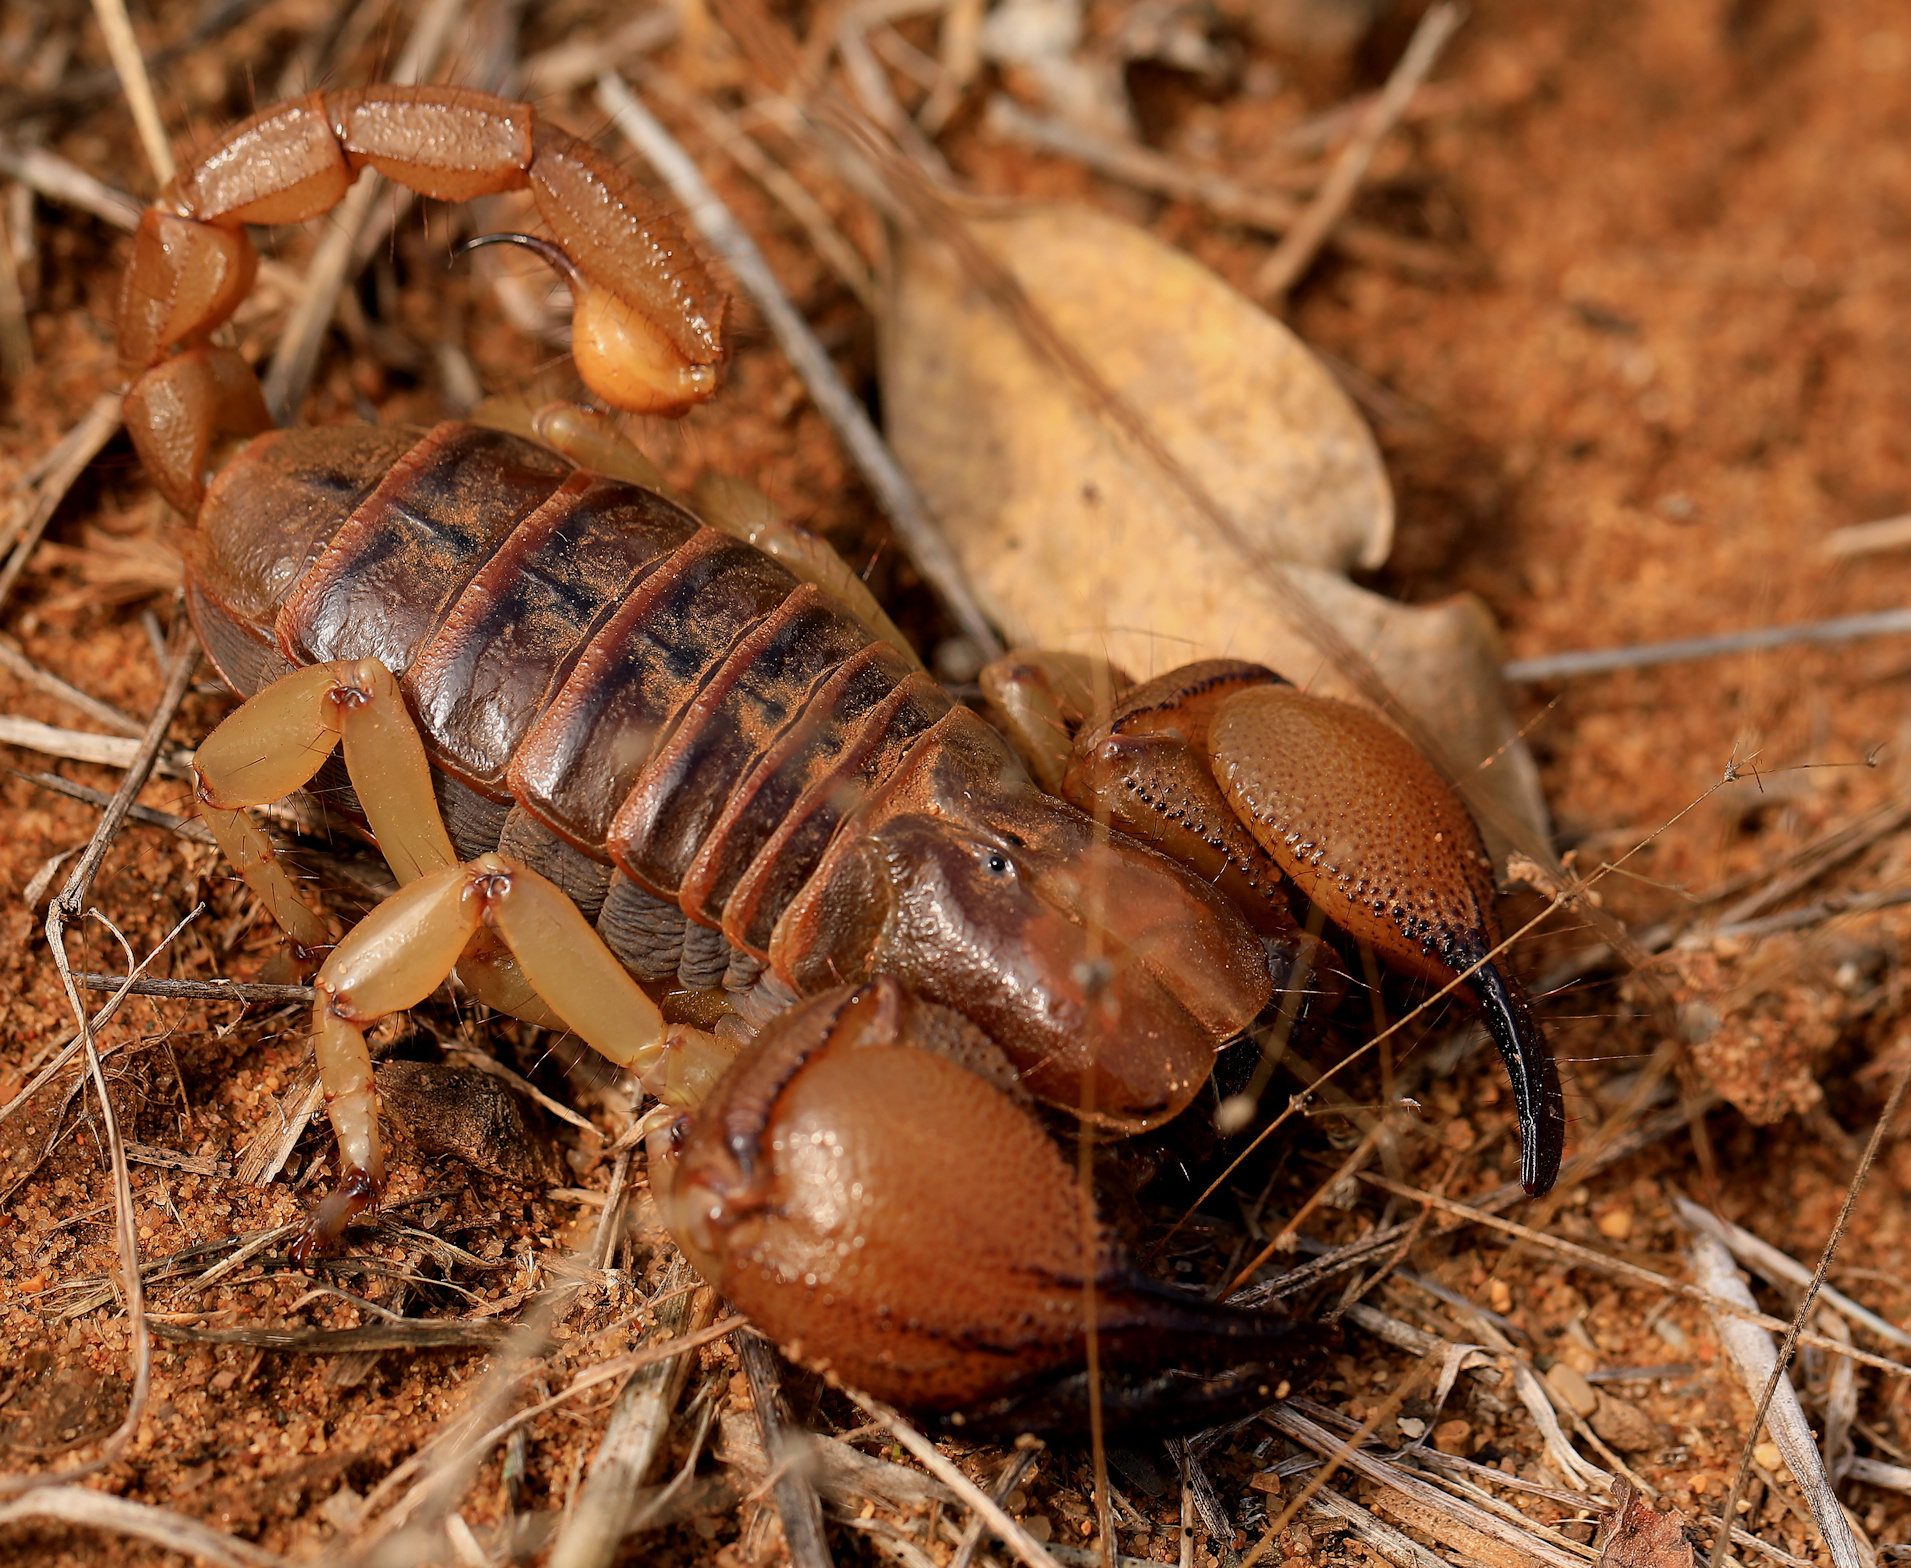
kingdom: Animalia
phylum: Arthropoda
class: Arachnida
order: Scorpiones
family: Scorpionidae
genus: Opistophthalmus
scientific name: Opistophthalmus glabrifrons
